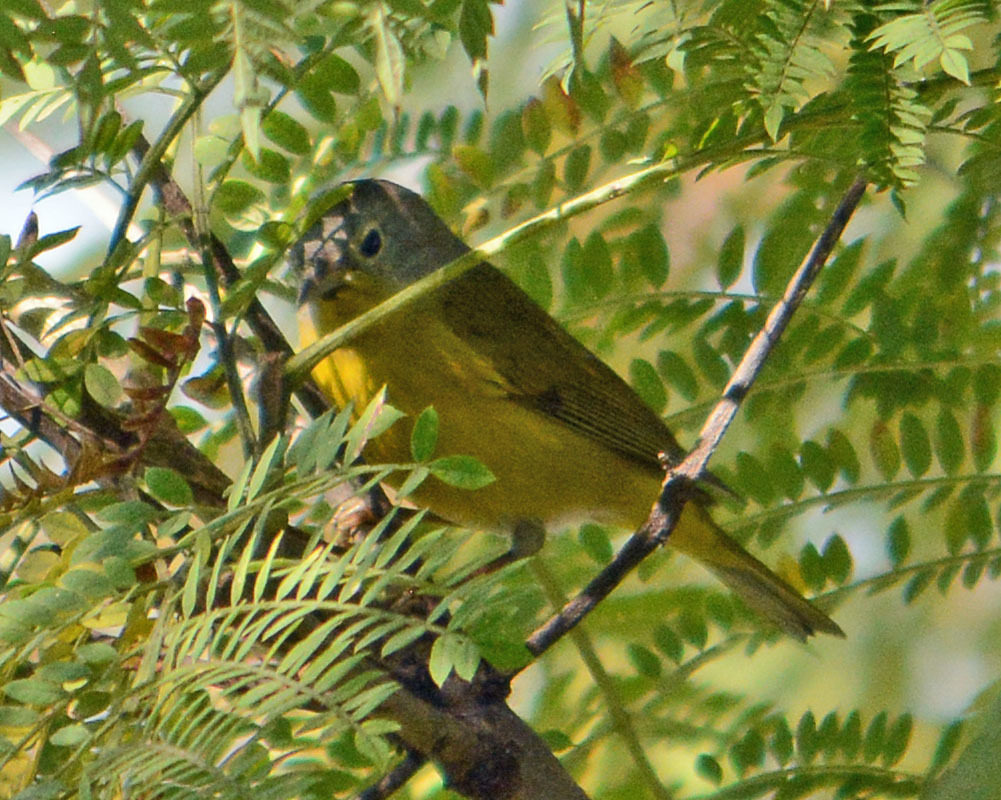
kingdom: Animalia
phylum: Chordata
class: Aves
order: Passeriformes
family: Parulidae
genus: Leiothlypis
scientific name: Leiothlypis ruficapilla
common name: Nashville warbler
